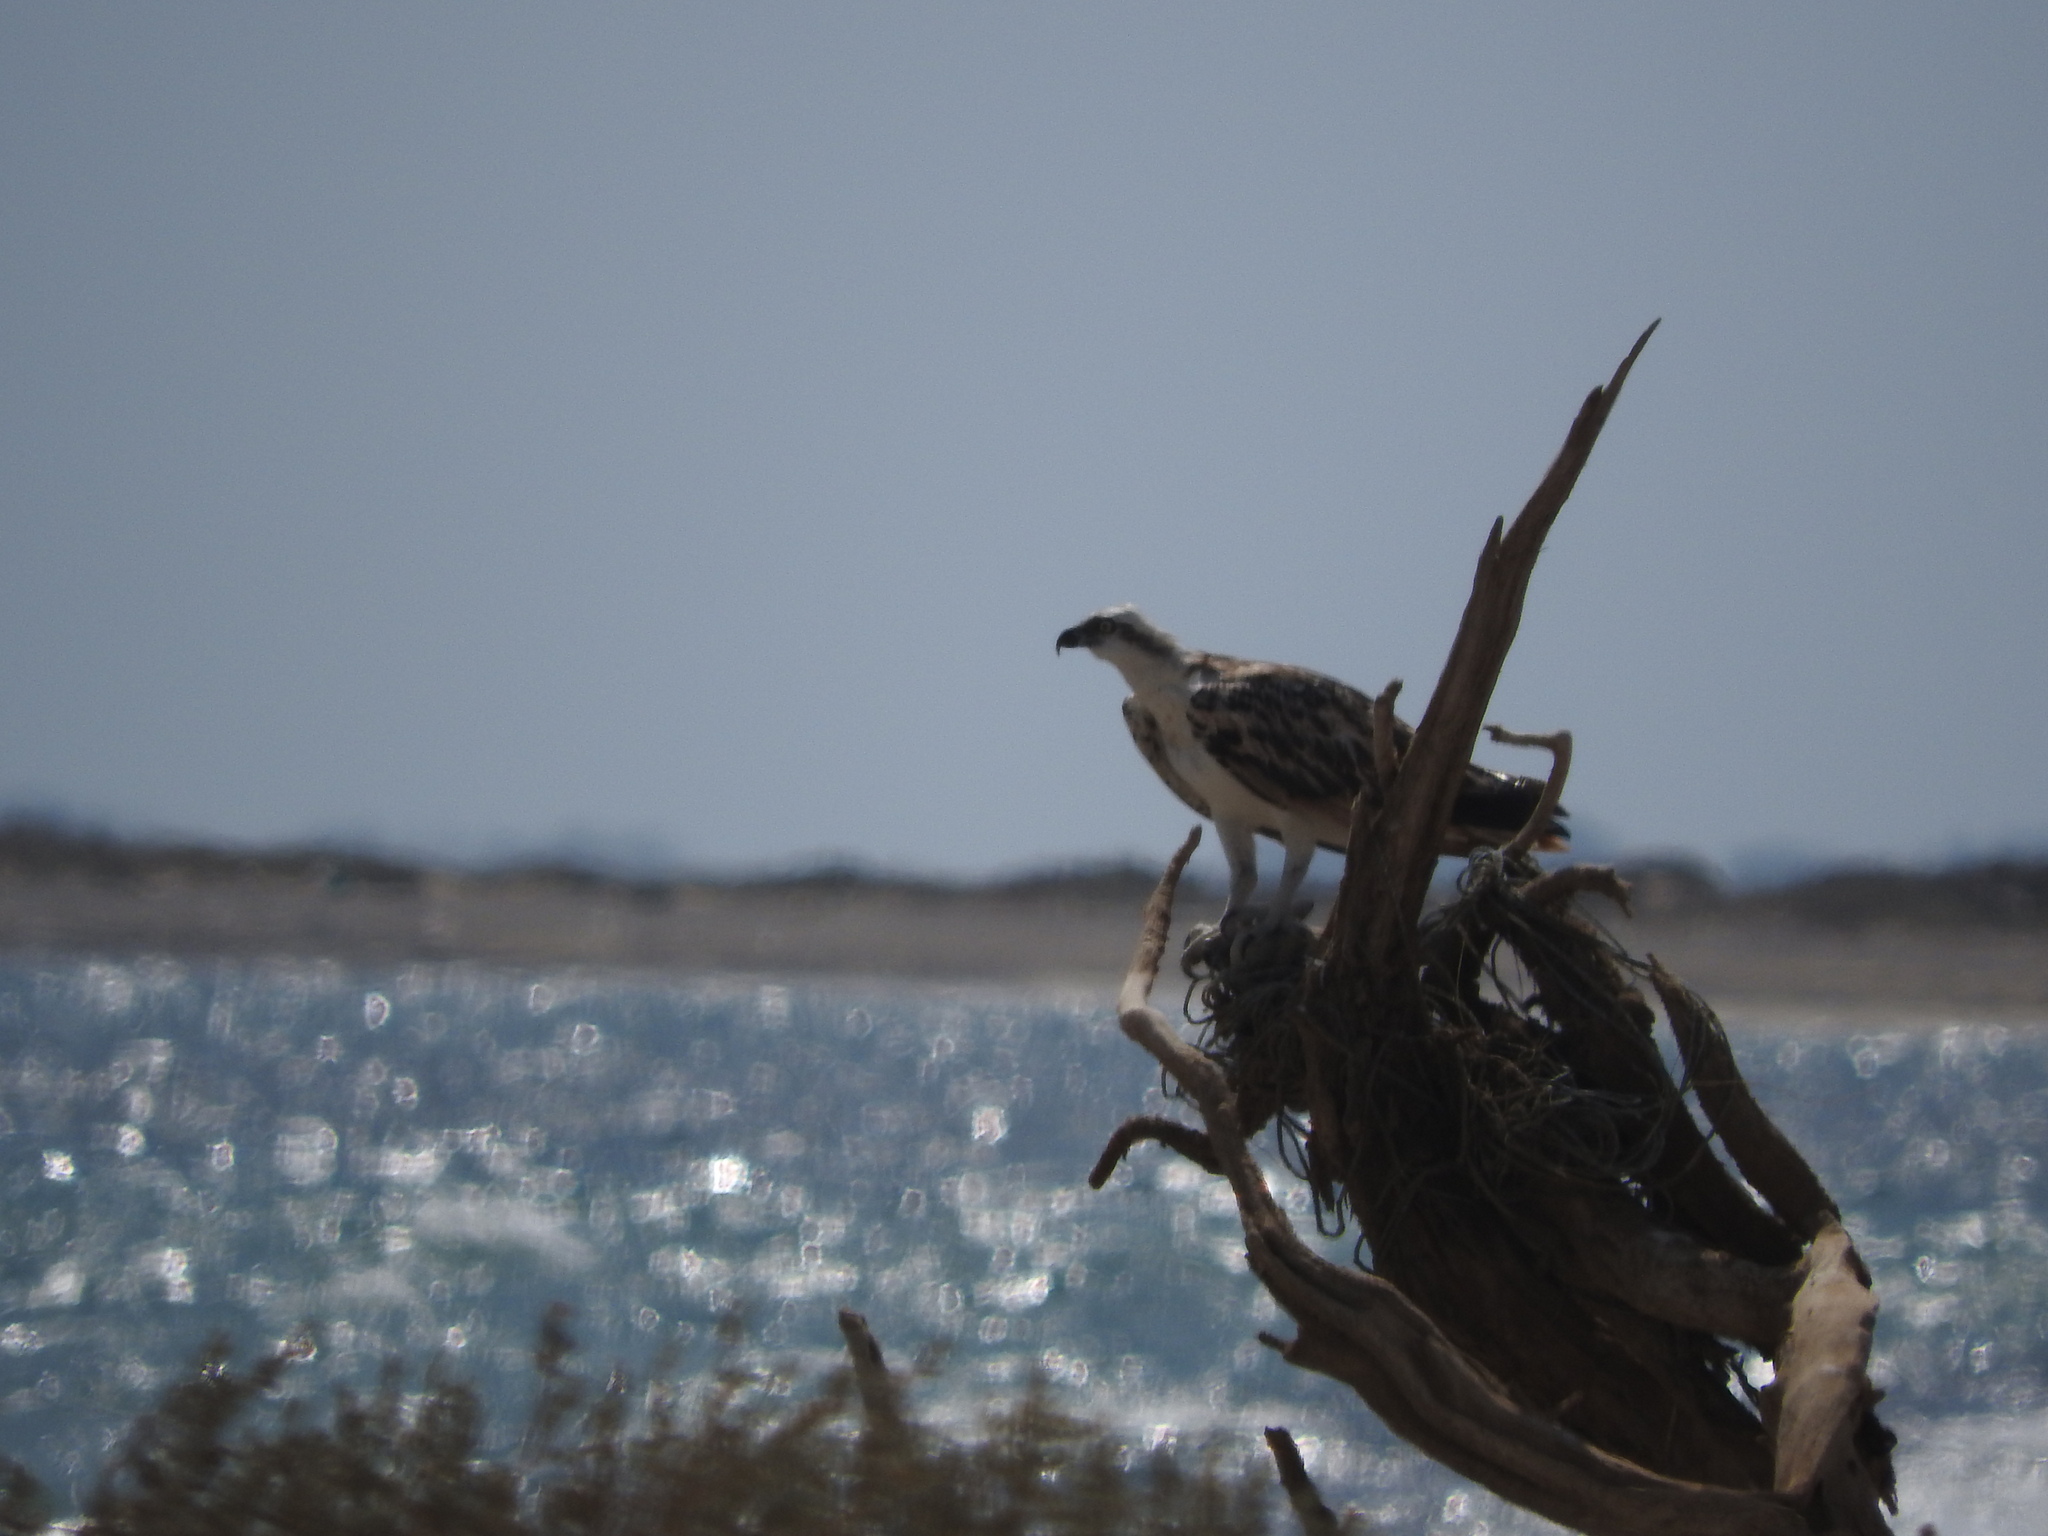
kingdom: Animalia
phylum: Chordata
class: Aves
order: Accipitriformes
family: Pandionidae
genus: Pandion
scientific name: Pandion haliaetus
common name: Osprey
